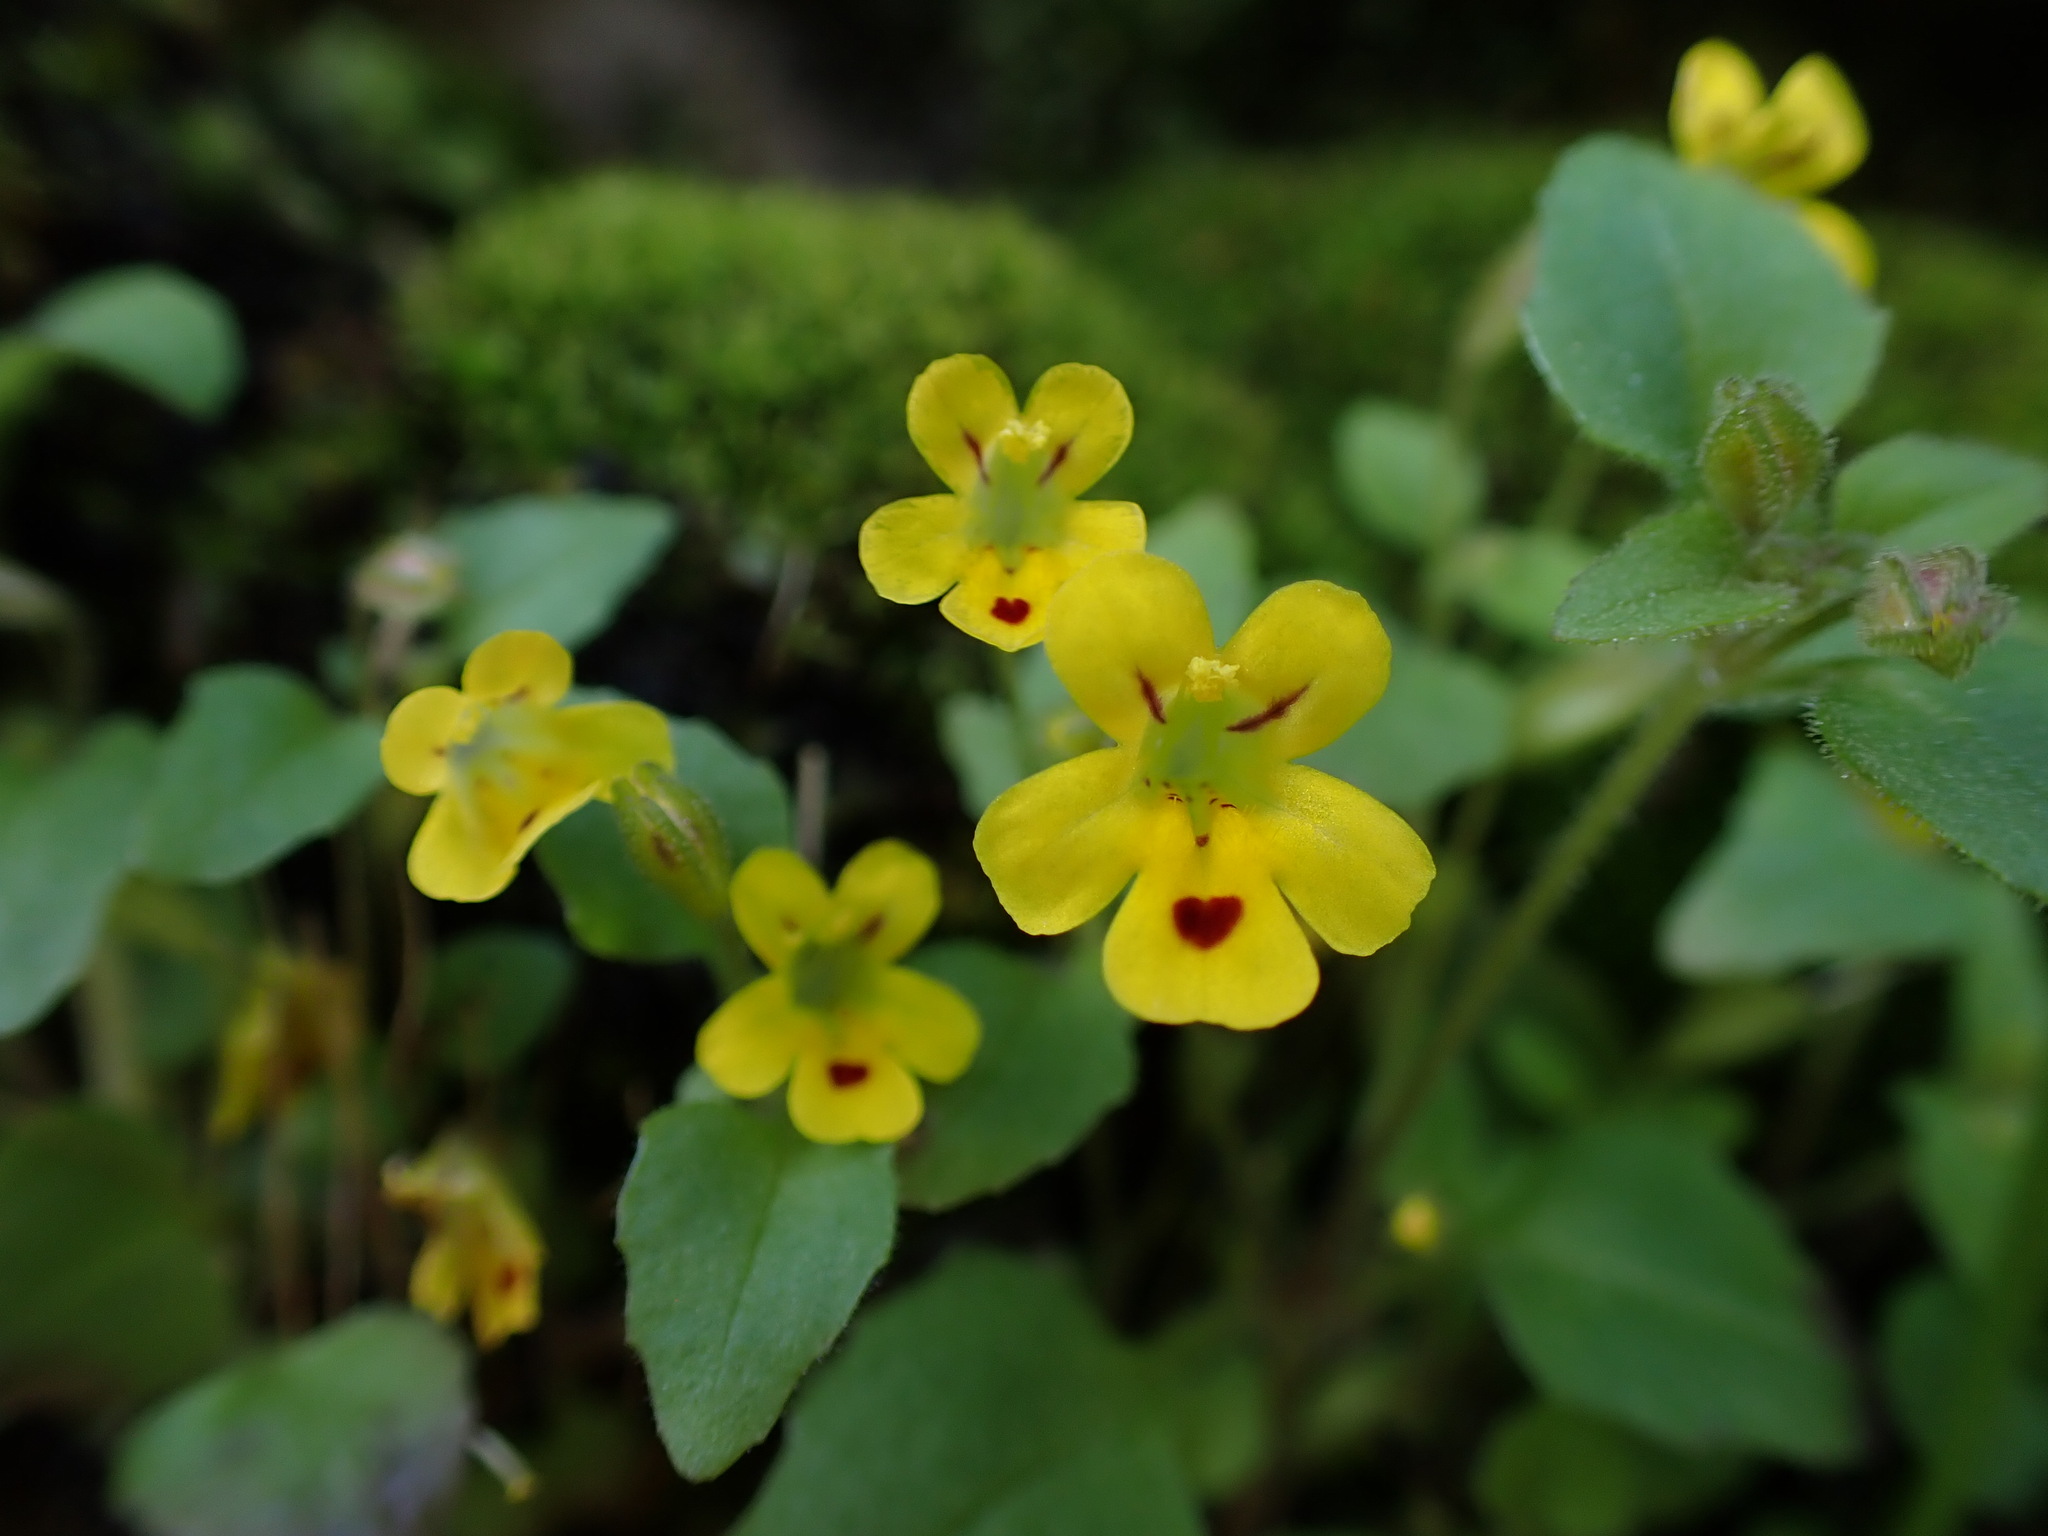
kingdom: Plantae
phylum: Tracheophyta
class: Magnoliopsida
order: Lamiales
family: Phrymaceae
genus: Erythranthe
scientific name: Erythranthe alsinoides
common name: Chickweed monkeyflower
